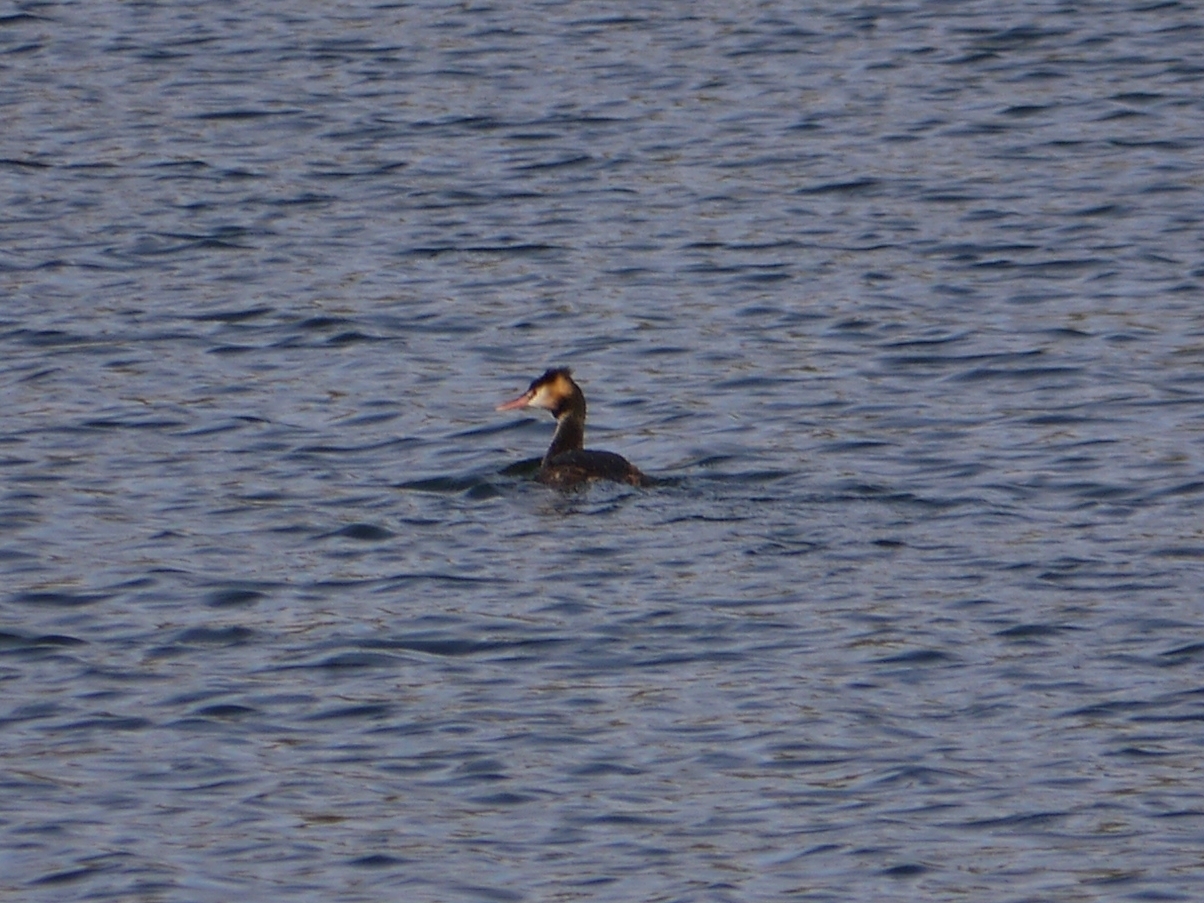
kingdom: Animalia
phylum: Chordata
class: Aves
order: Podicipediformes
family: Podicipedidae
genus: Podiceps
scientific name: Podiceps cristatus
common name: Great crested grebe
